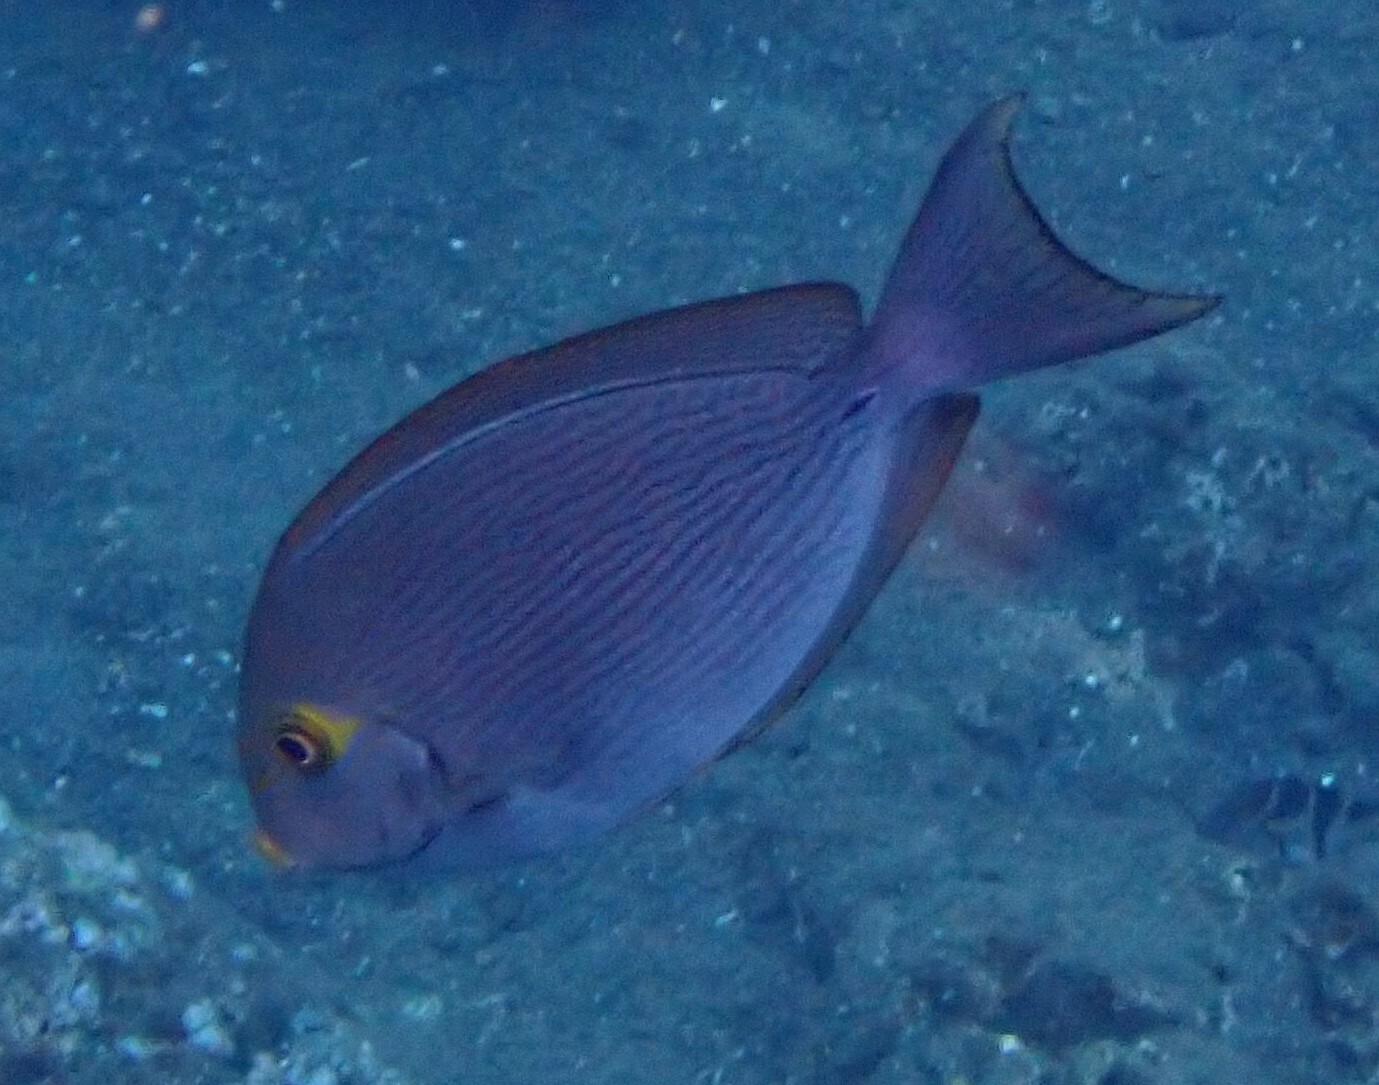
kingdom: Animalia
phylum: Chordata
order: Perciformes
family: Acanthuridae
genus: Acanthurus
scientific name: Acanthurus mata
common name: Bleeker's surgeonfish
